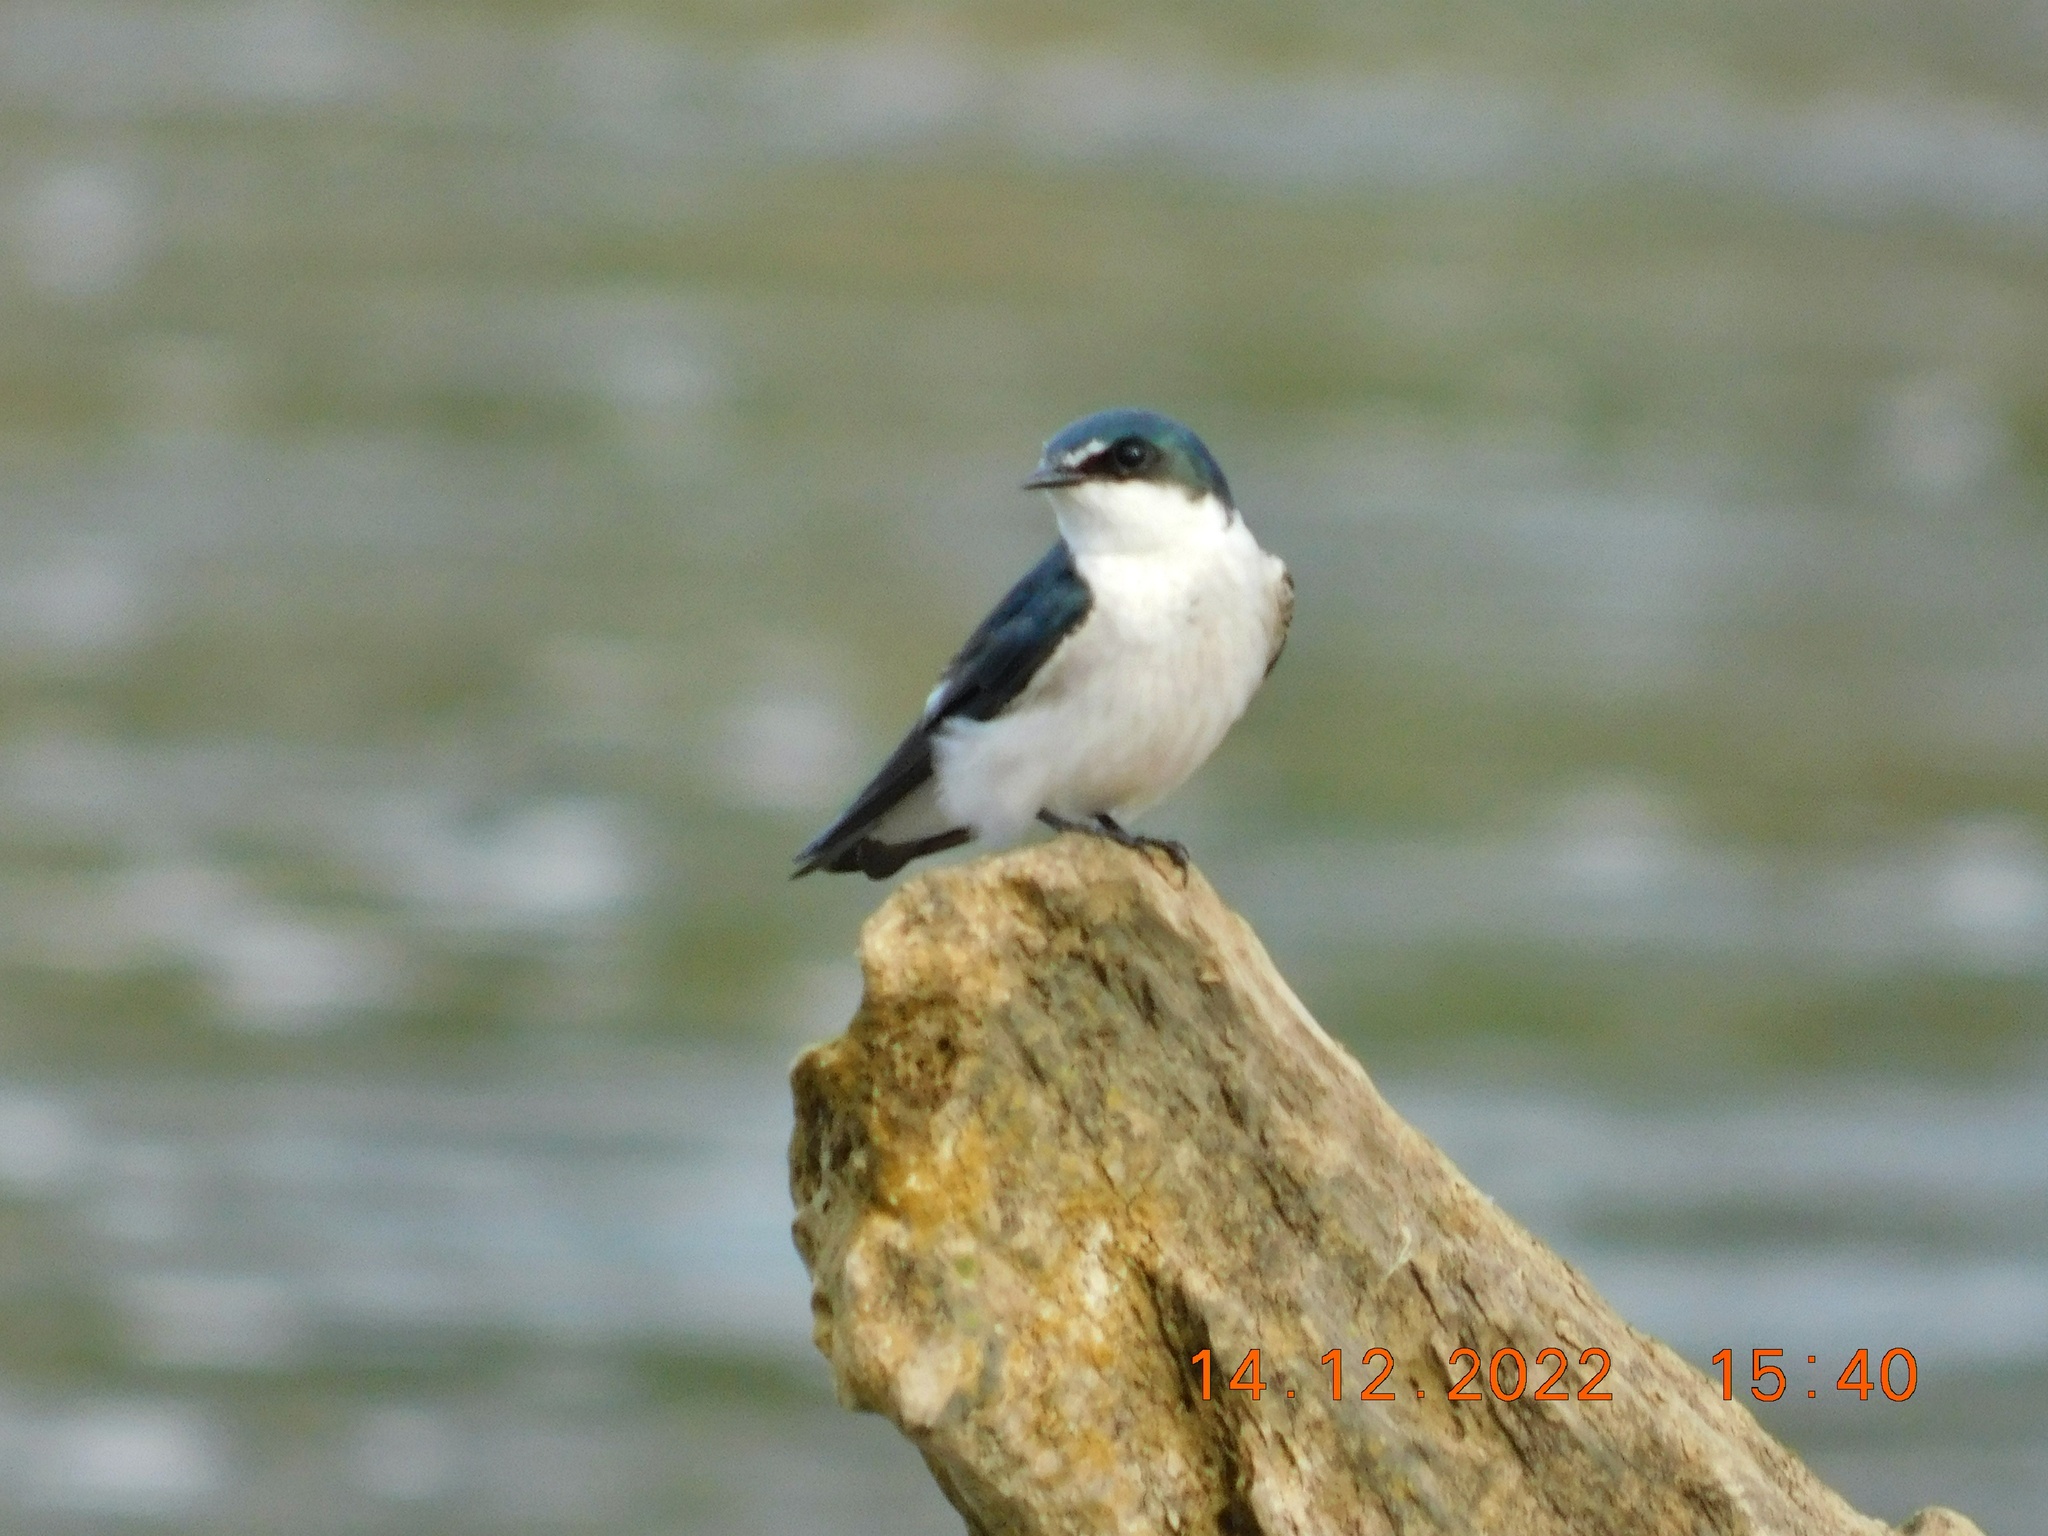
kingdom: Animalia
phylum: Chordata
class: Aves
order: Passeriformes
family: Hirundinidae
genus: Tachycineta
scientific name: Tachycineta albilinea
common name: Mangrove swallow
